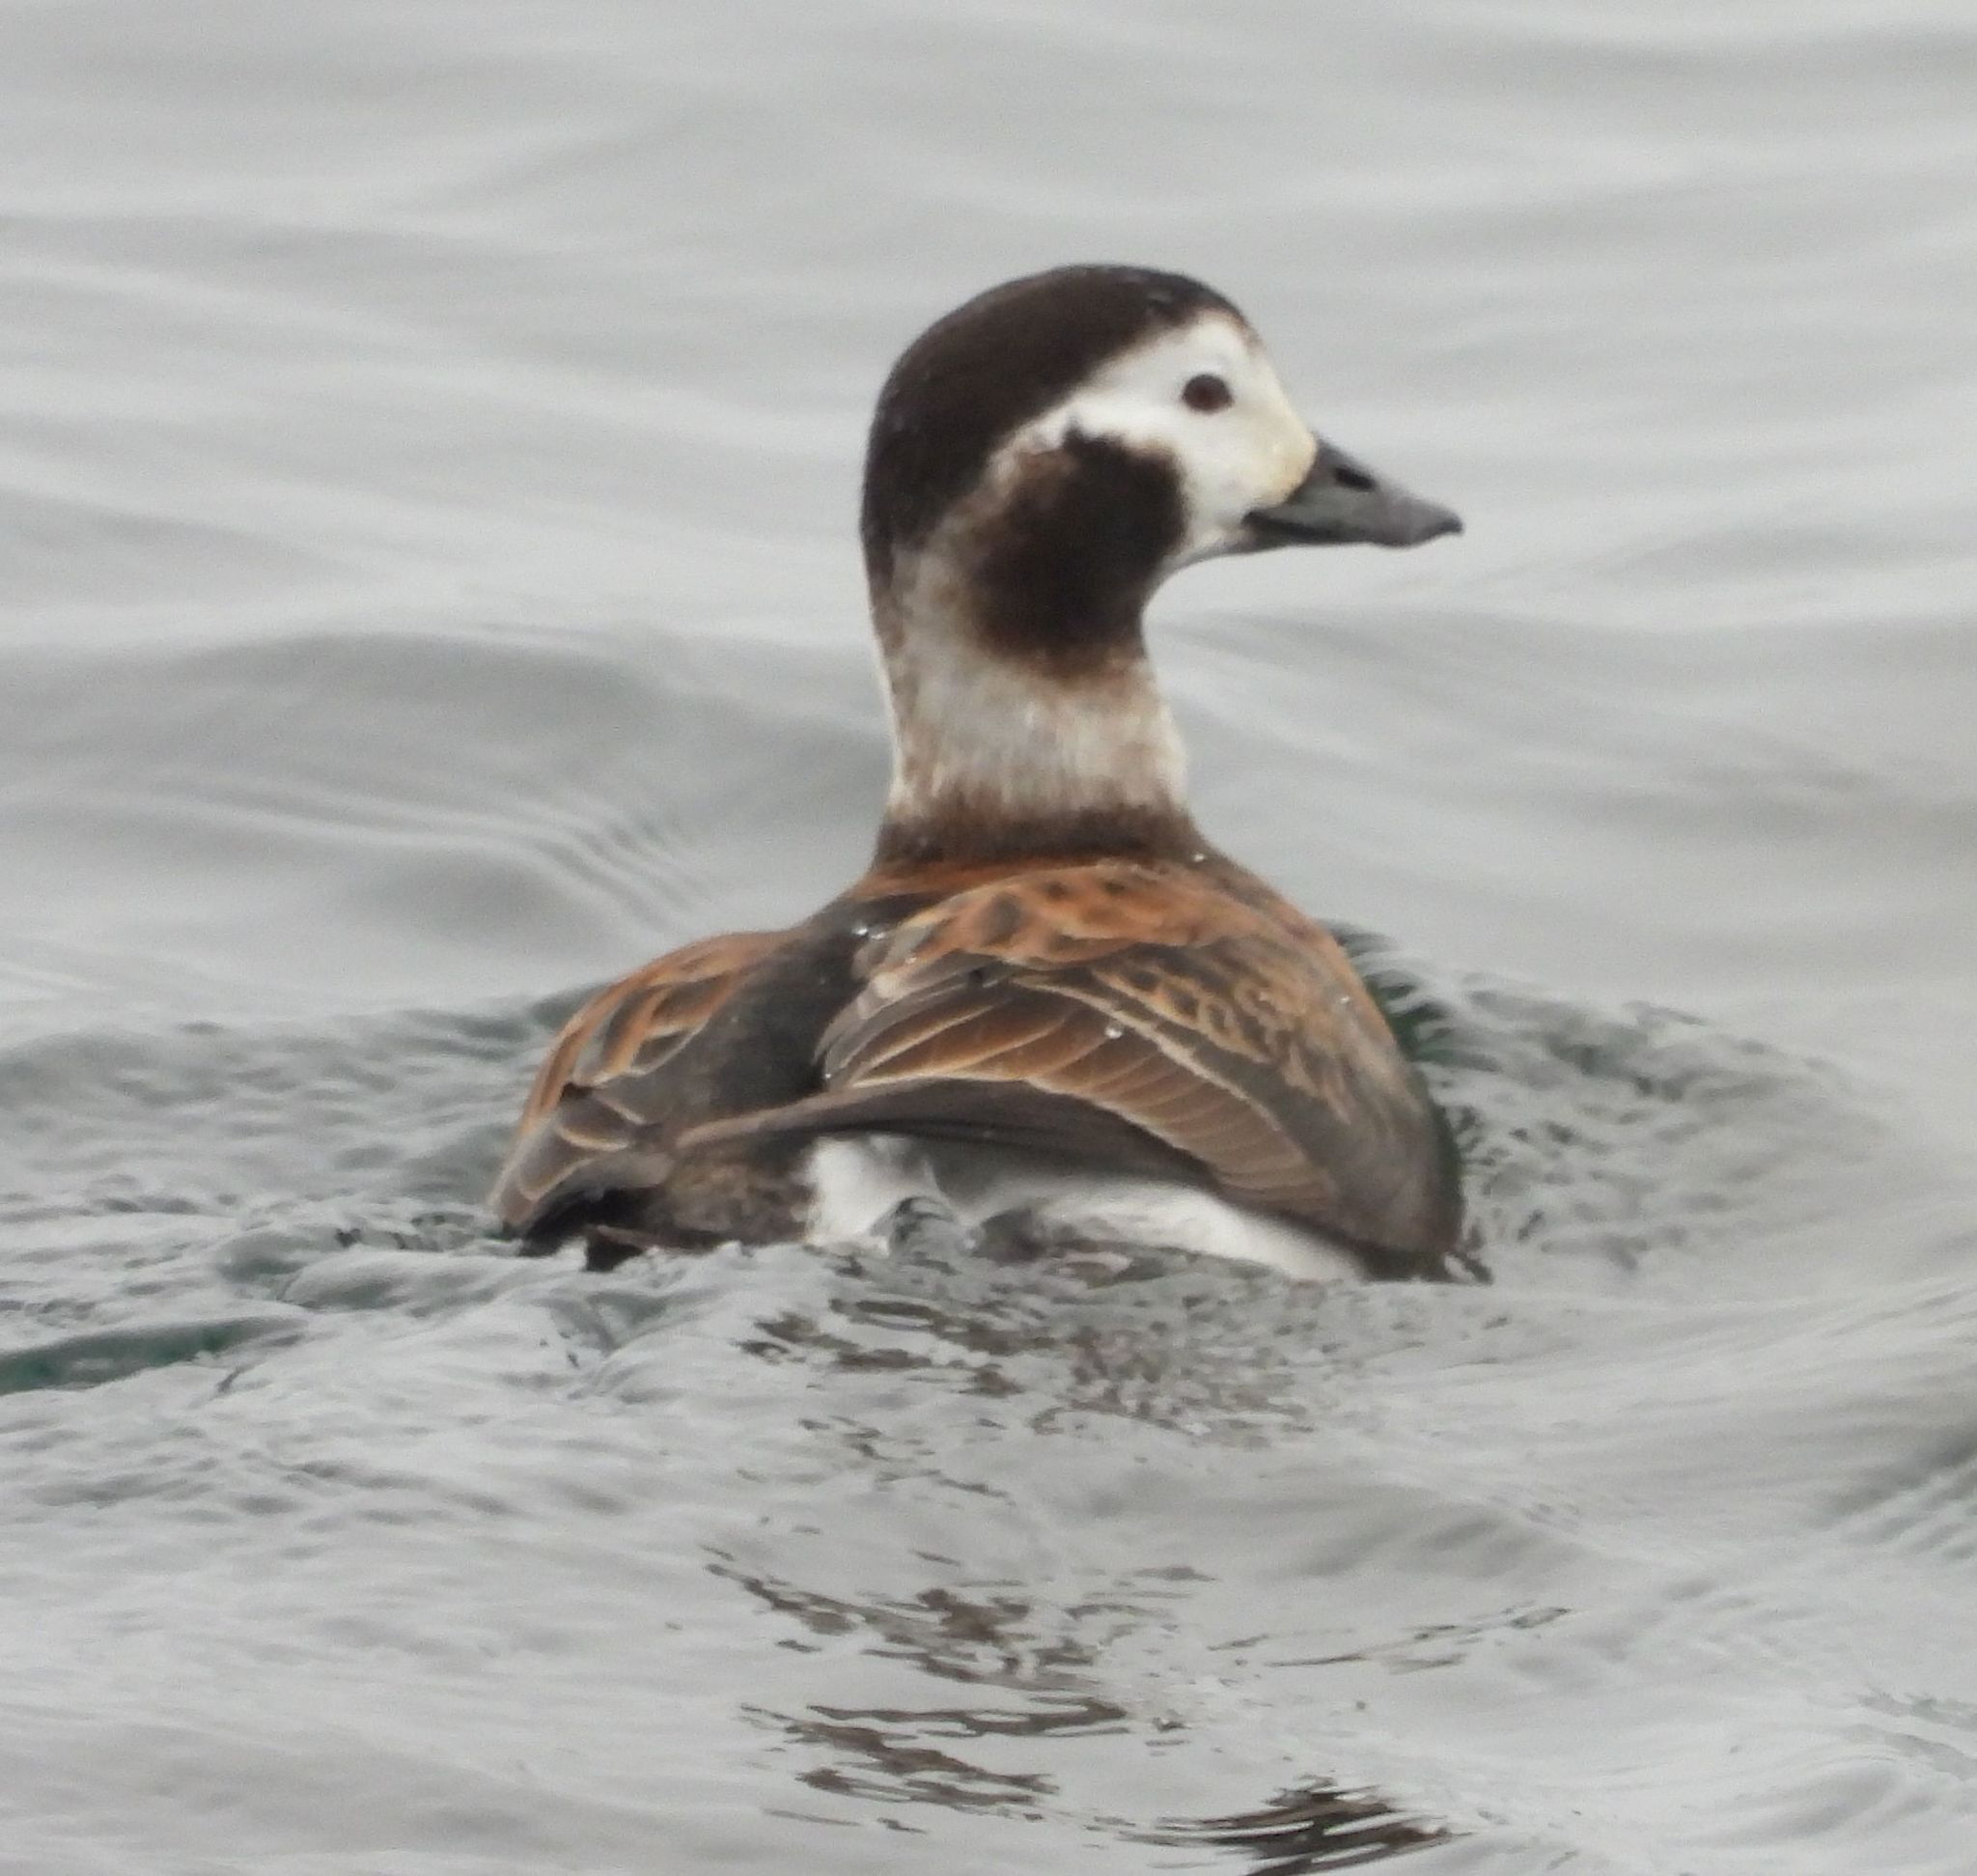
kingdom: Animalia
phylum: Chordata
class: Aves
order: Anseriformes
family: Anatidae
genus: Clangula
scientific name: Clangula hyemalis
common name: Long-tailed duck
